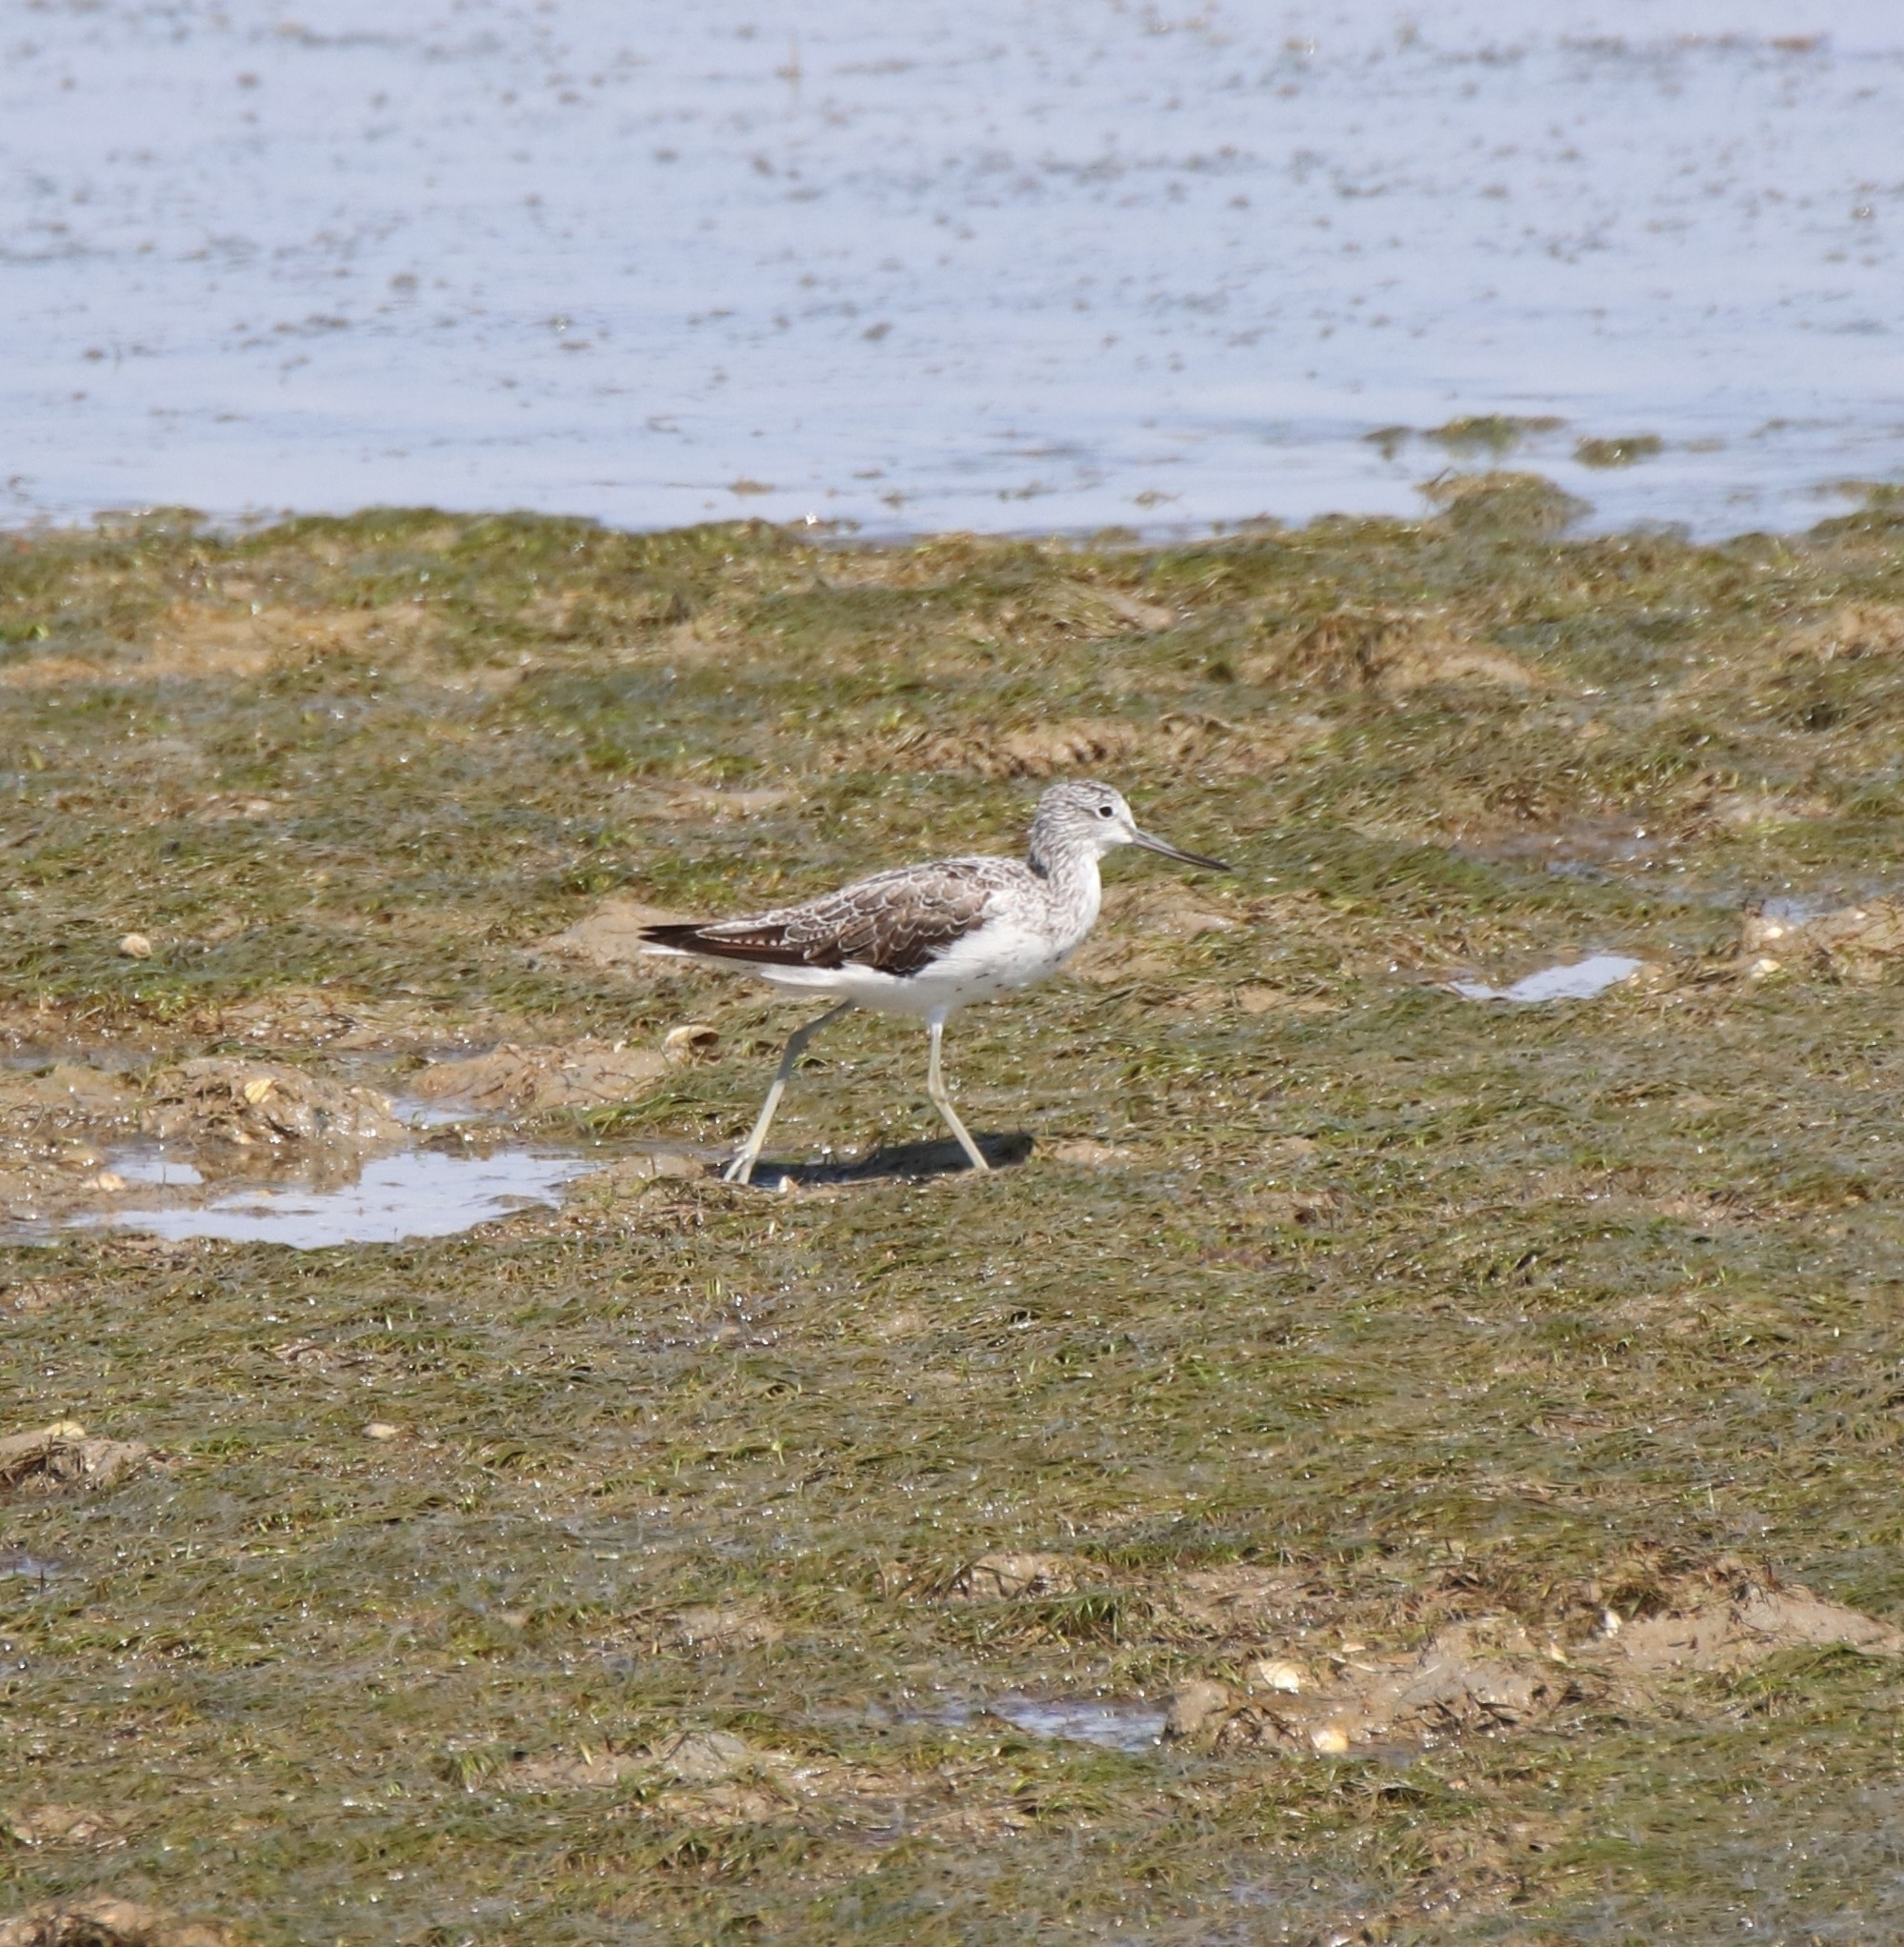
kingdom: Animalia
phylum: Chordata
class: Aves
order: Charadriiformes
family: Scolopacidae
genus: Tringa
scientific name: Tringa nebularia
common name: Common greenshank
